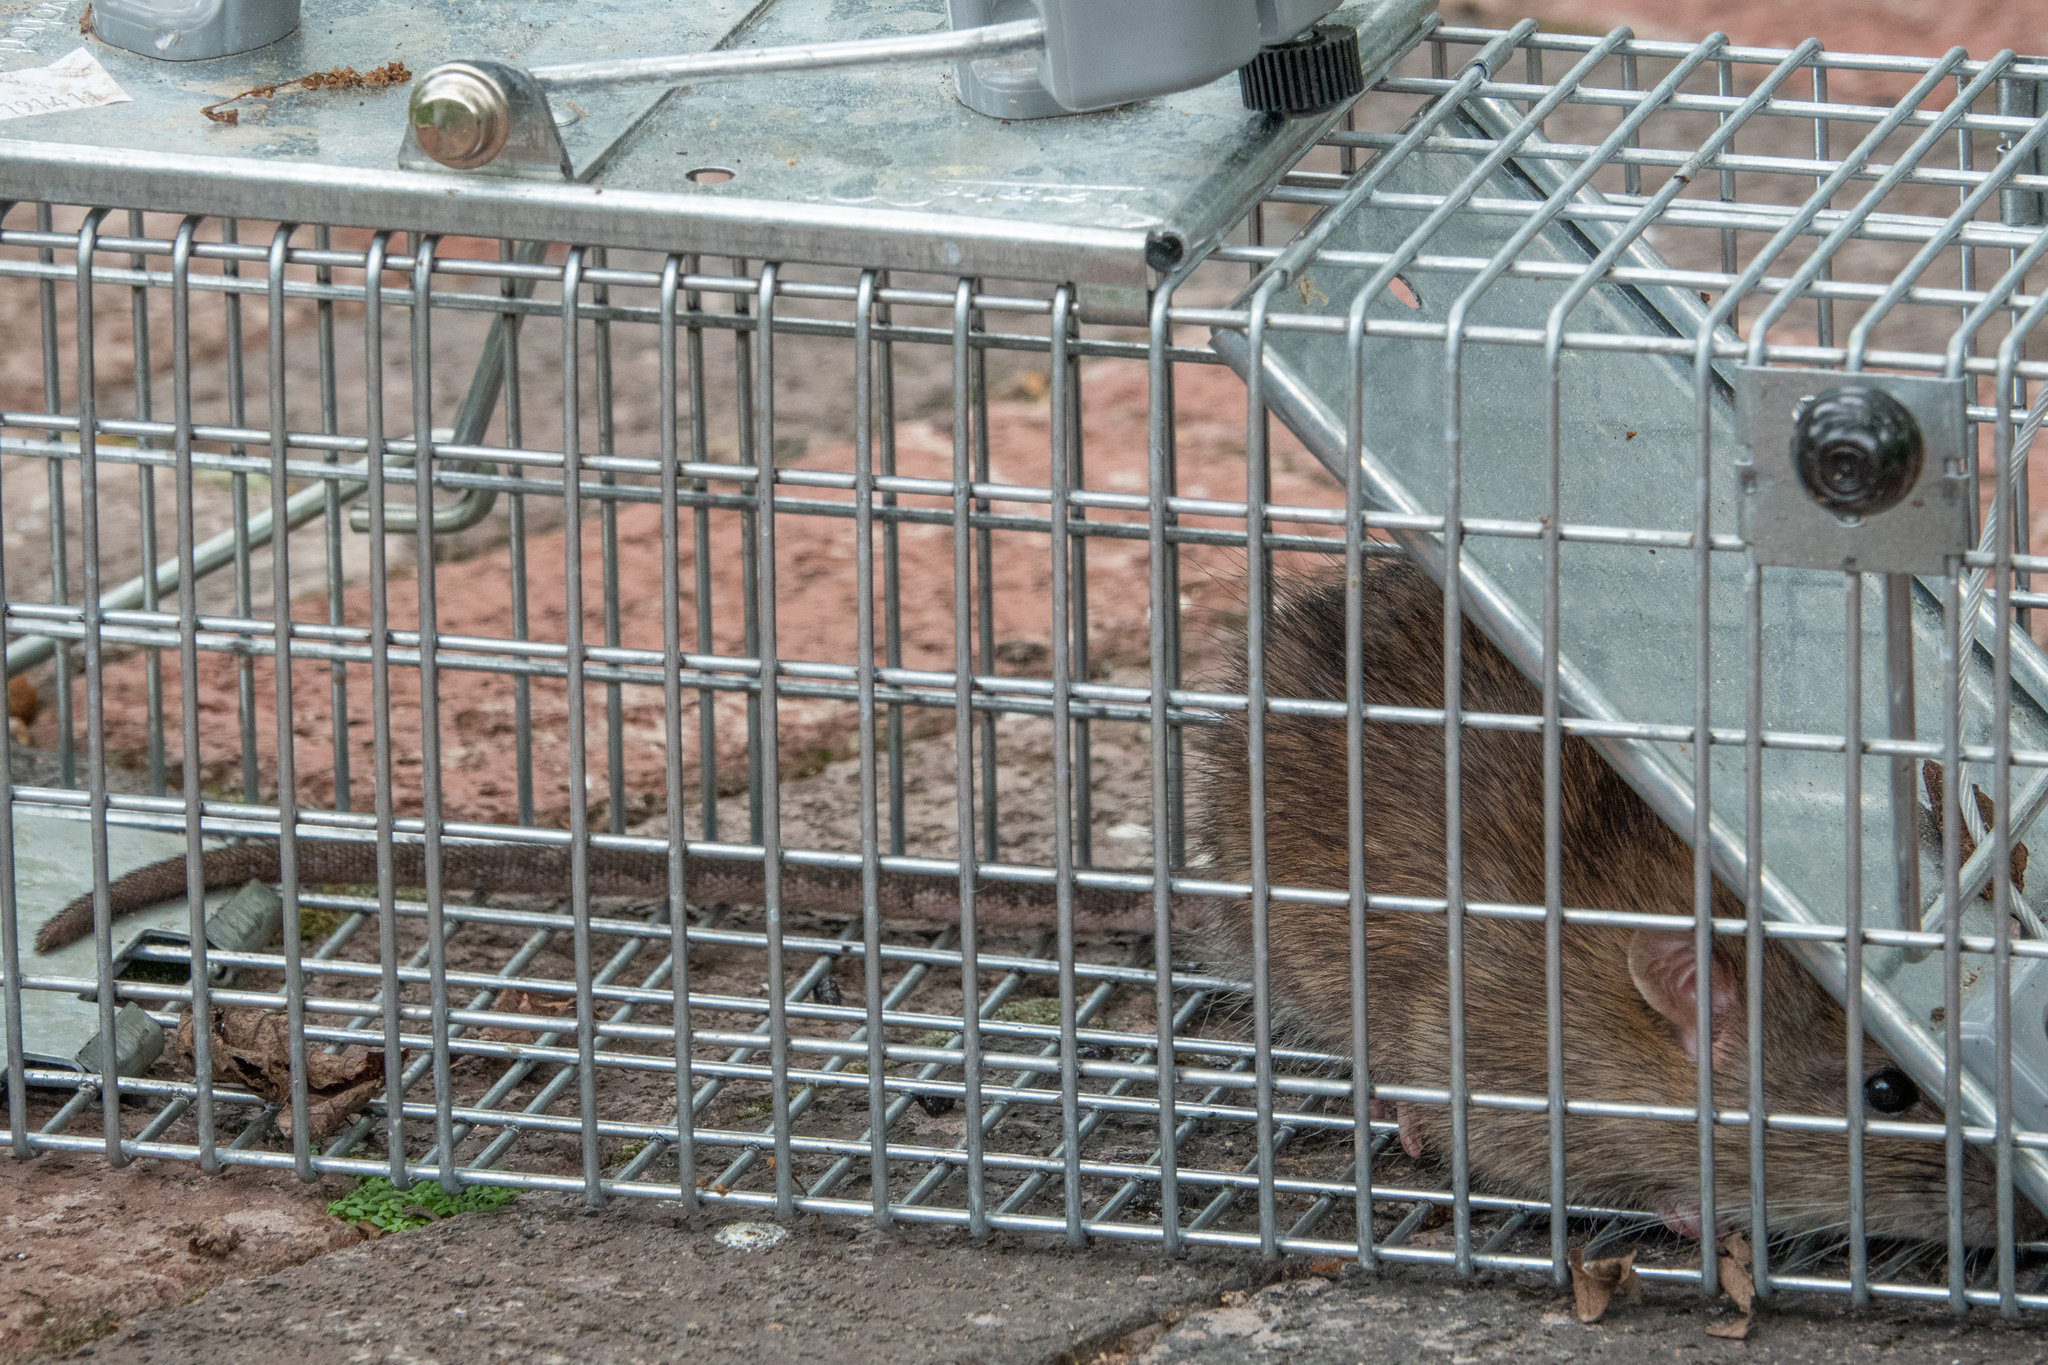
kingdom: Animalia
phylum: Chordata
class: Mammalia
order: Rodentia
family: Muridae
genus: Rattus
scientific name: Rattus norvegicus
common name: Brown rat
